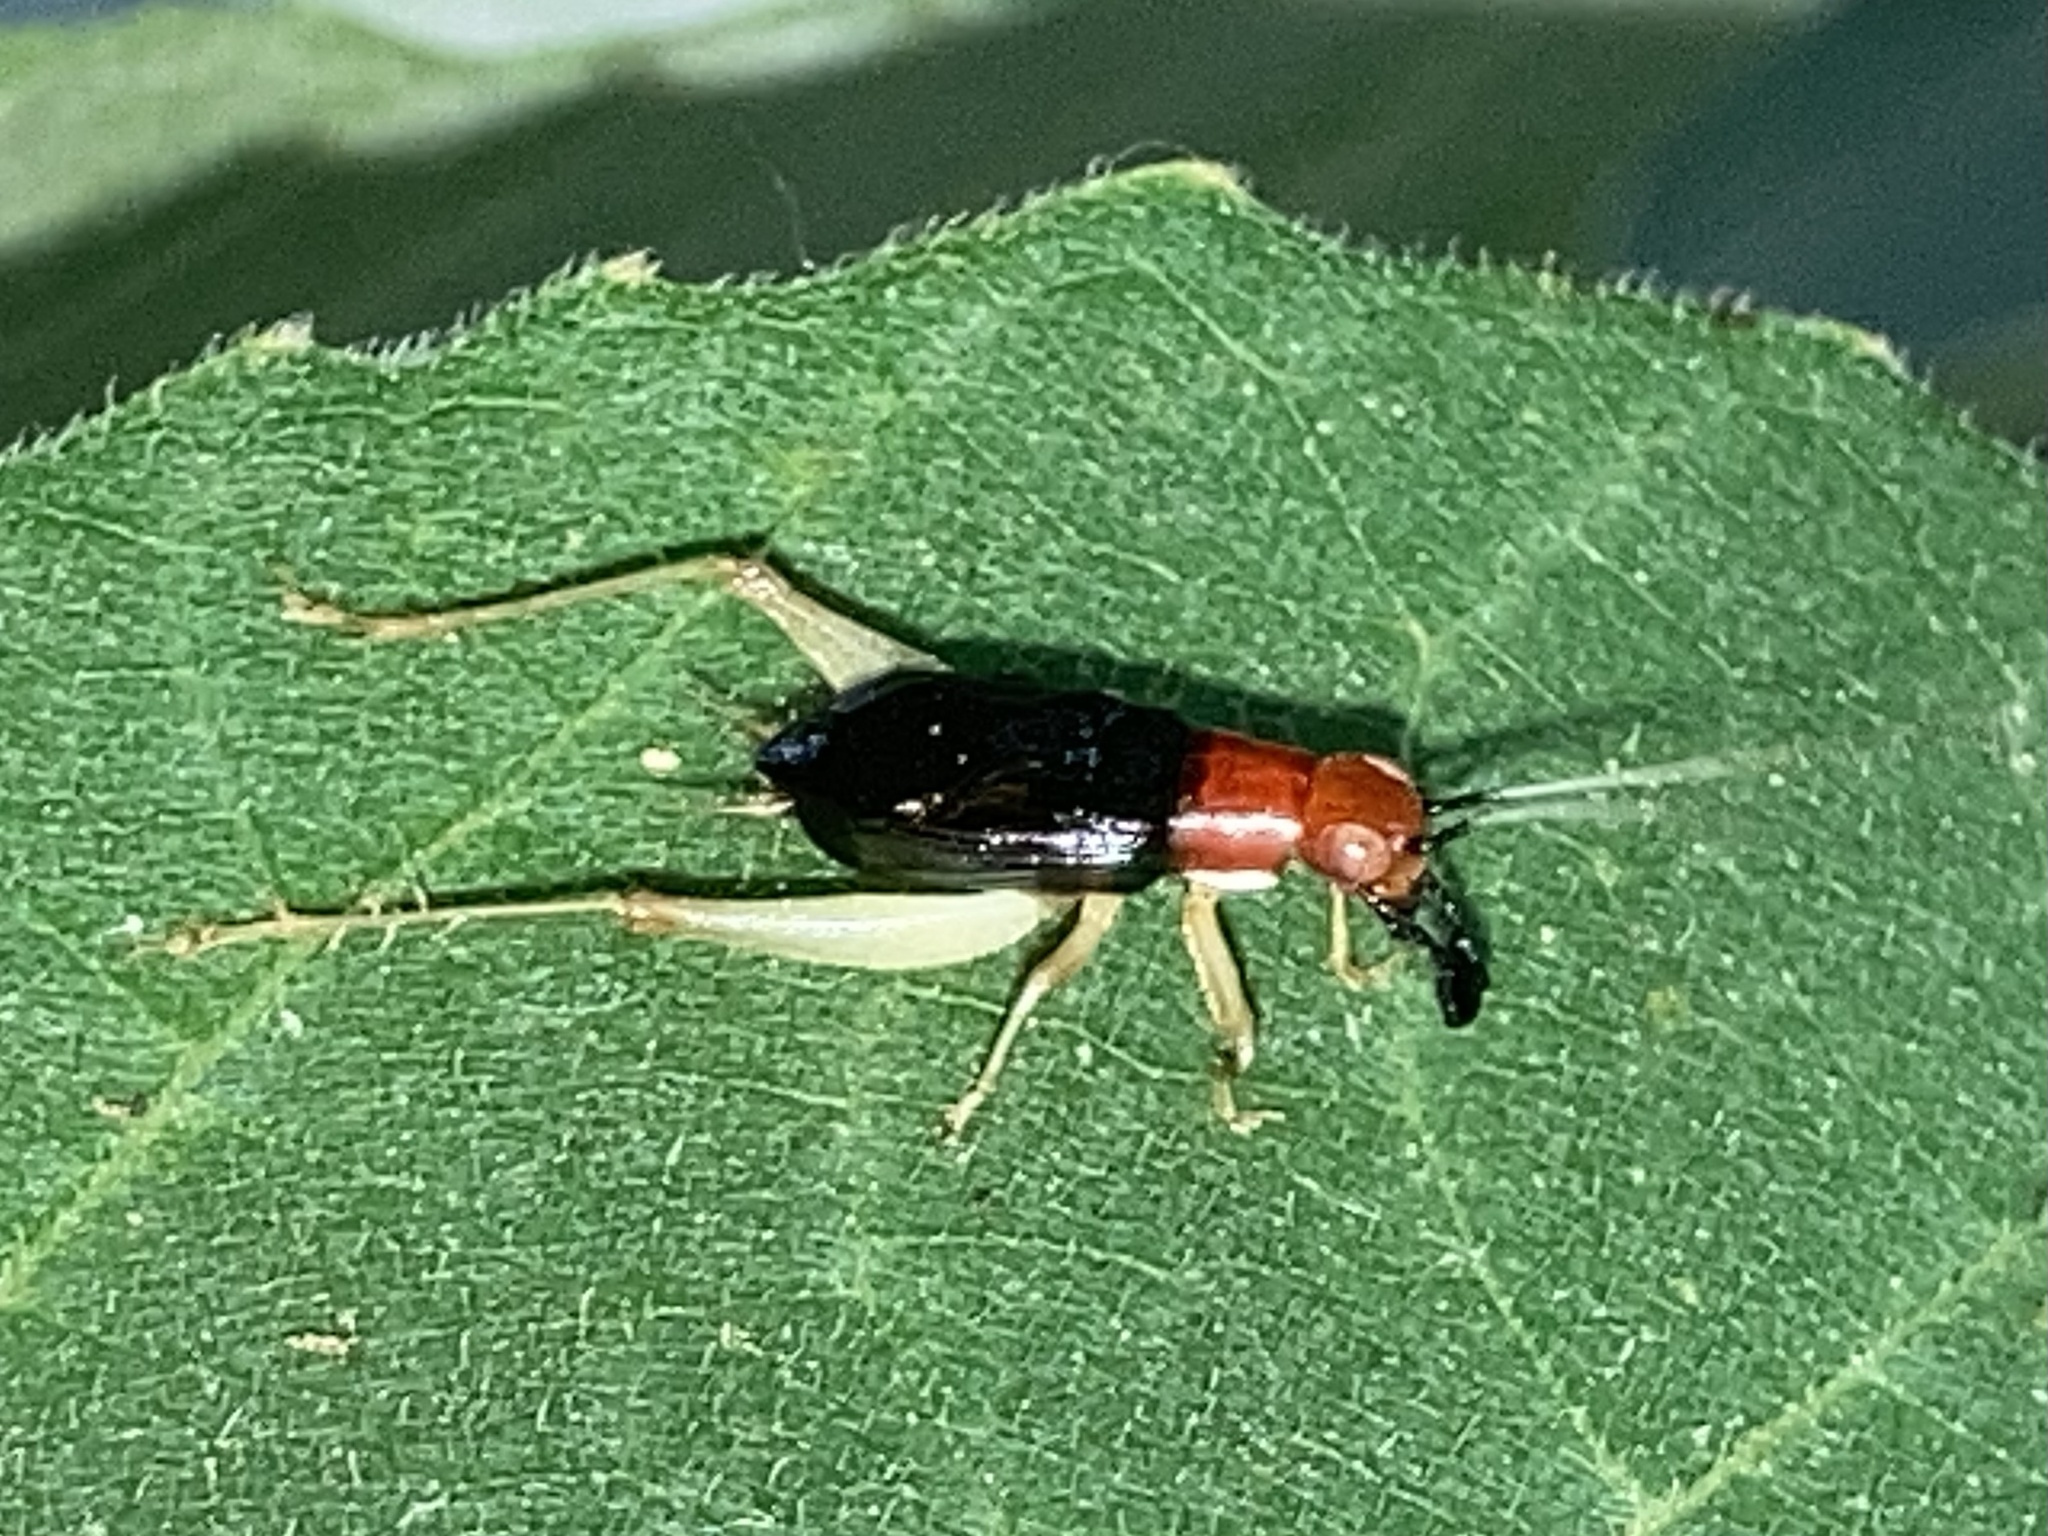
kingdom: Animalia
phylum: Arthropoda
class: Insecta
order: Orthoptera
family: Trigonidiidae
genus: Phyllopalpus
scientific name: Phyllopalpus pulchellus
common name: Handsome trig
